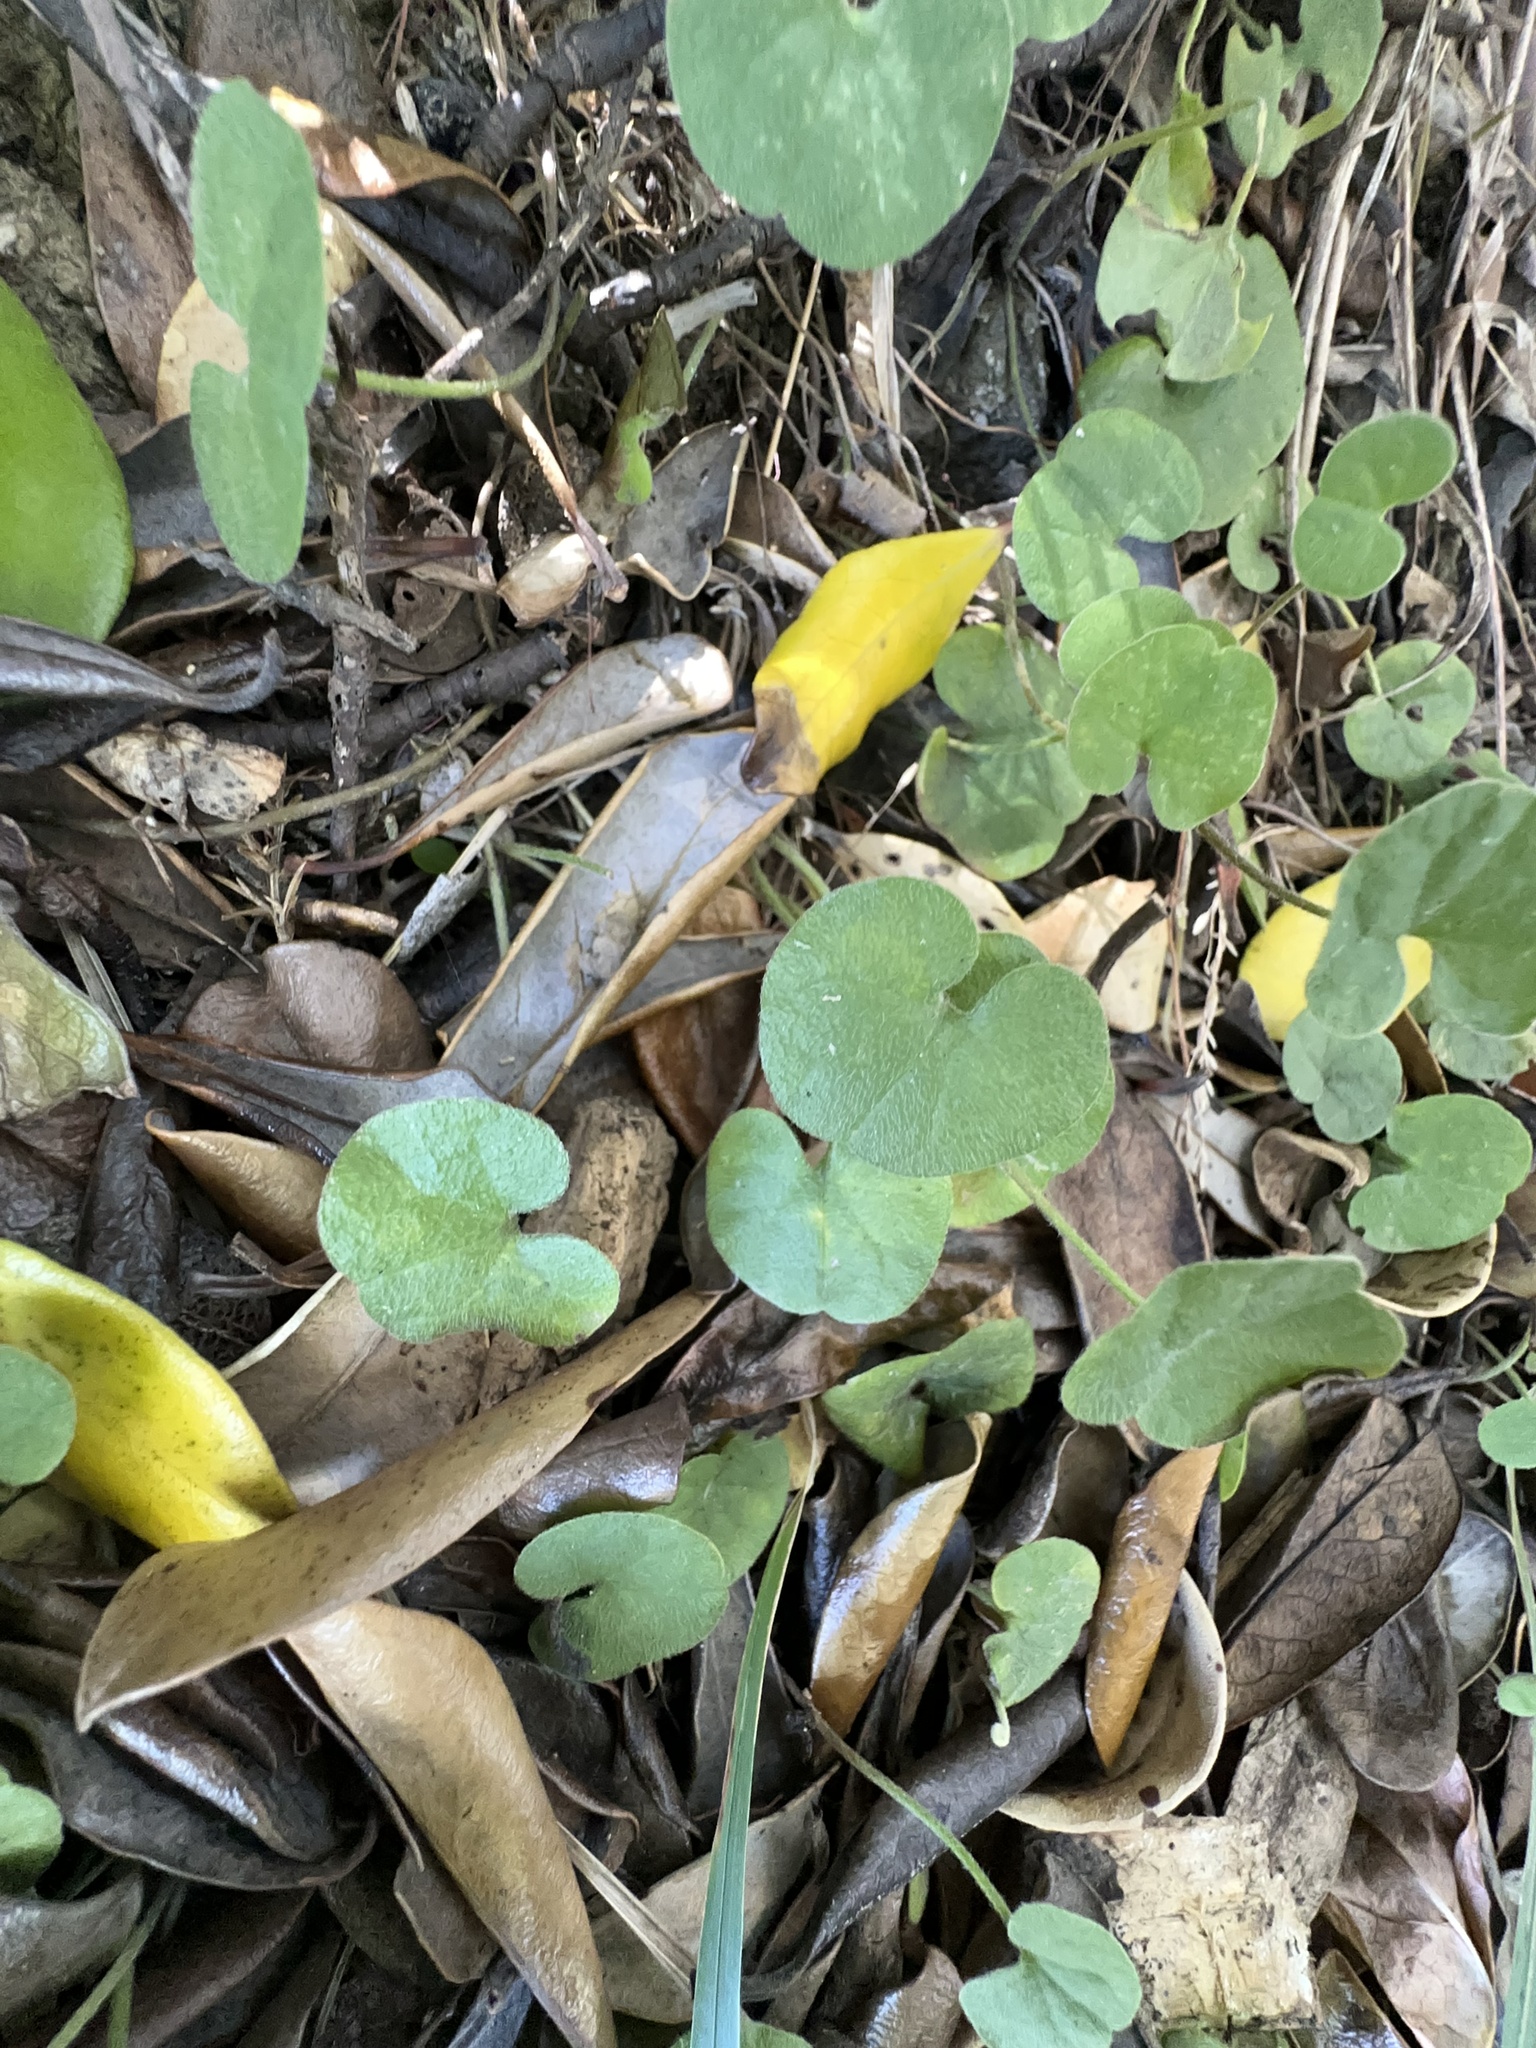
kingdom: Plantae
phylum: Tracheophyta
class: Magnoliopsida
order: Solanales
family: Convolvulaceae
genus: Dichondra
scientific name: Dichondra repens
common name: Kidneyweed
